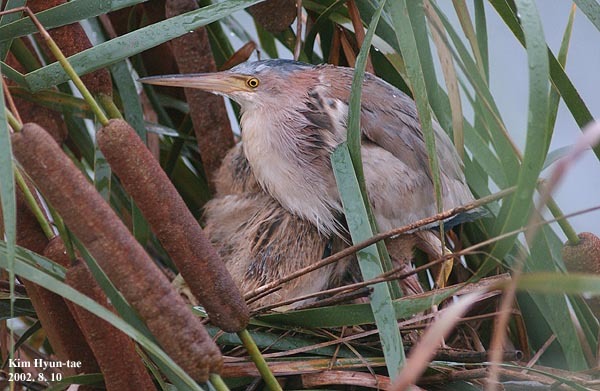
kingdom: Animalia
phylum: Chordata
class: Aves
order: Pelecaniformes
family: Ardeidae
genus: Ixobrychus
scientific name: Ixobrychus sinensis
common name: Yellow bittern
